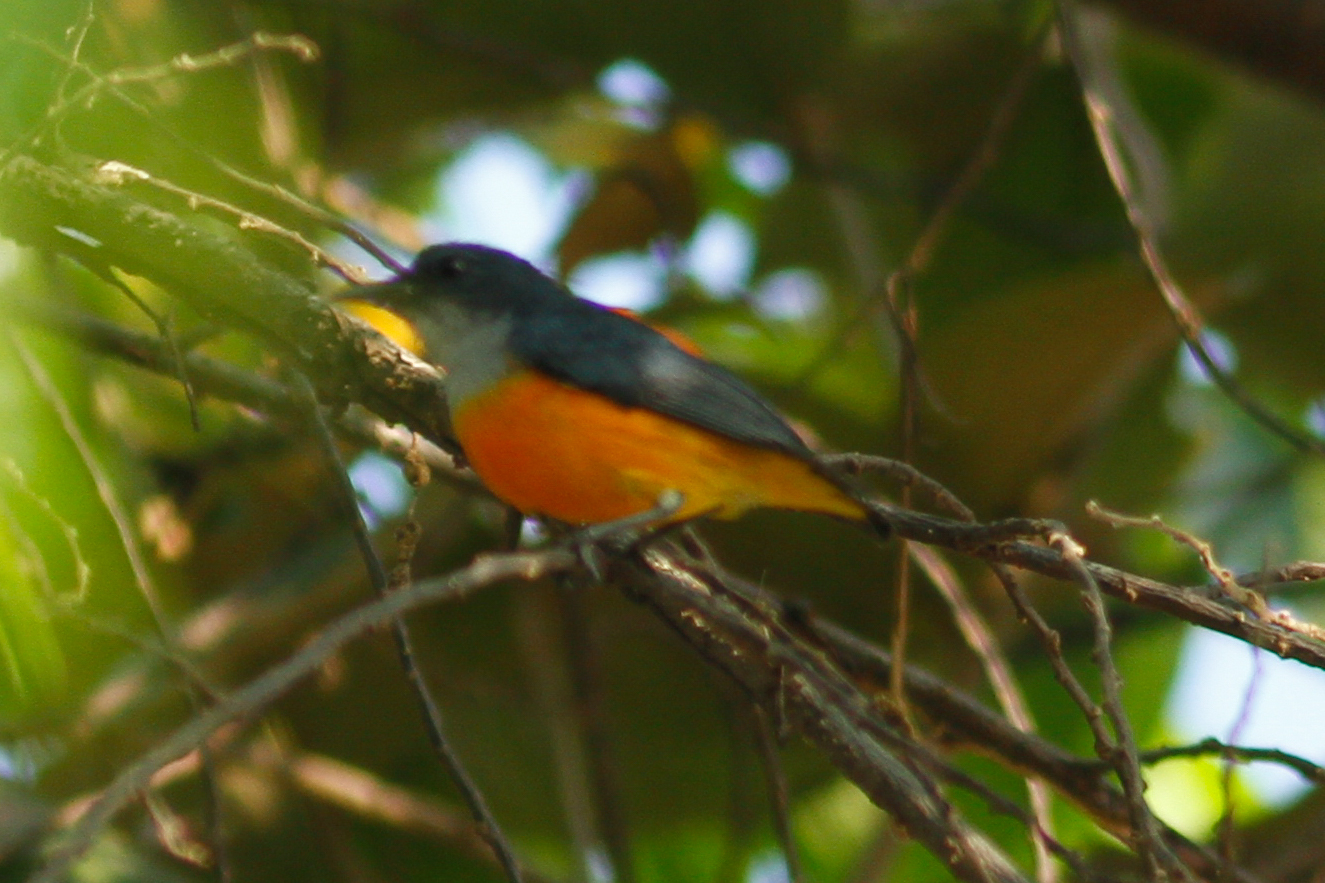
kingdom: Animalia
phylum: Chordata
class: Aves
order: Passeriformes
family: Dicaeidae
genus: Dicaeum
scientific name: Dicaeum trigonostigma
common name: Orange-bellied flowerpecker
